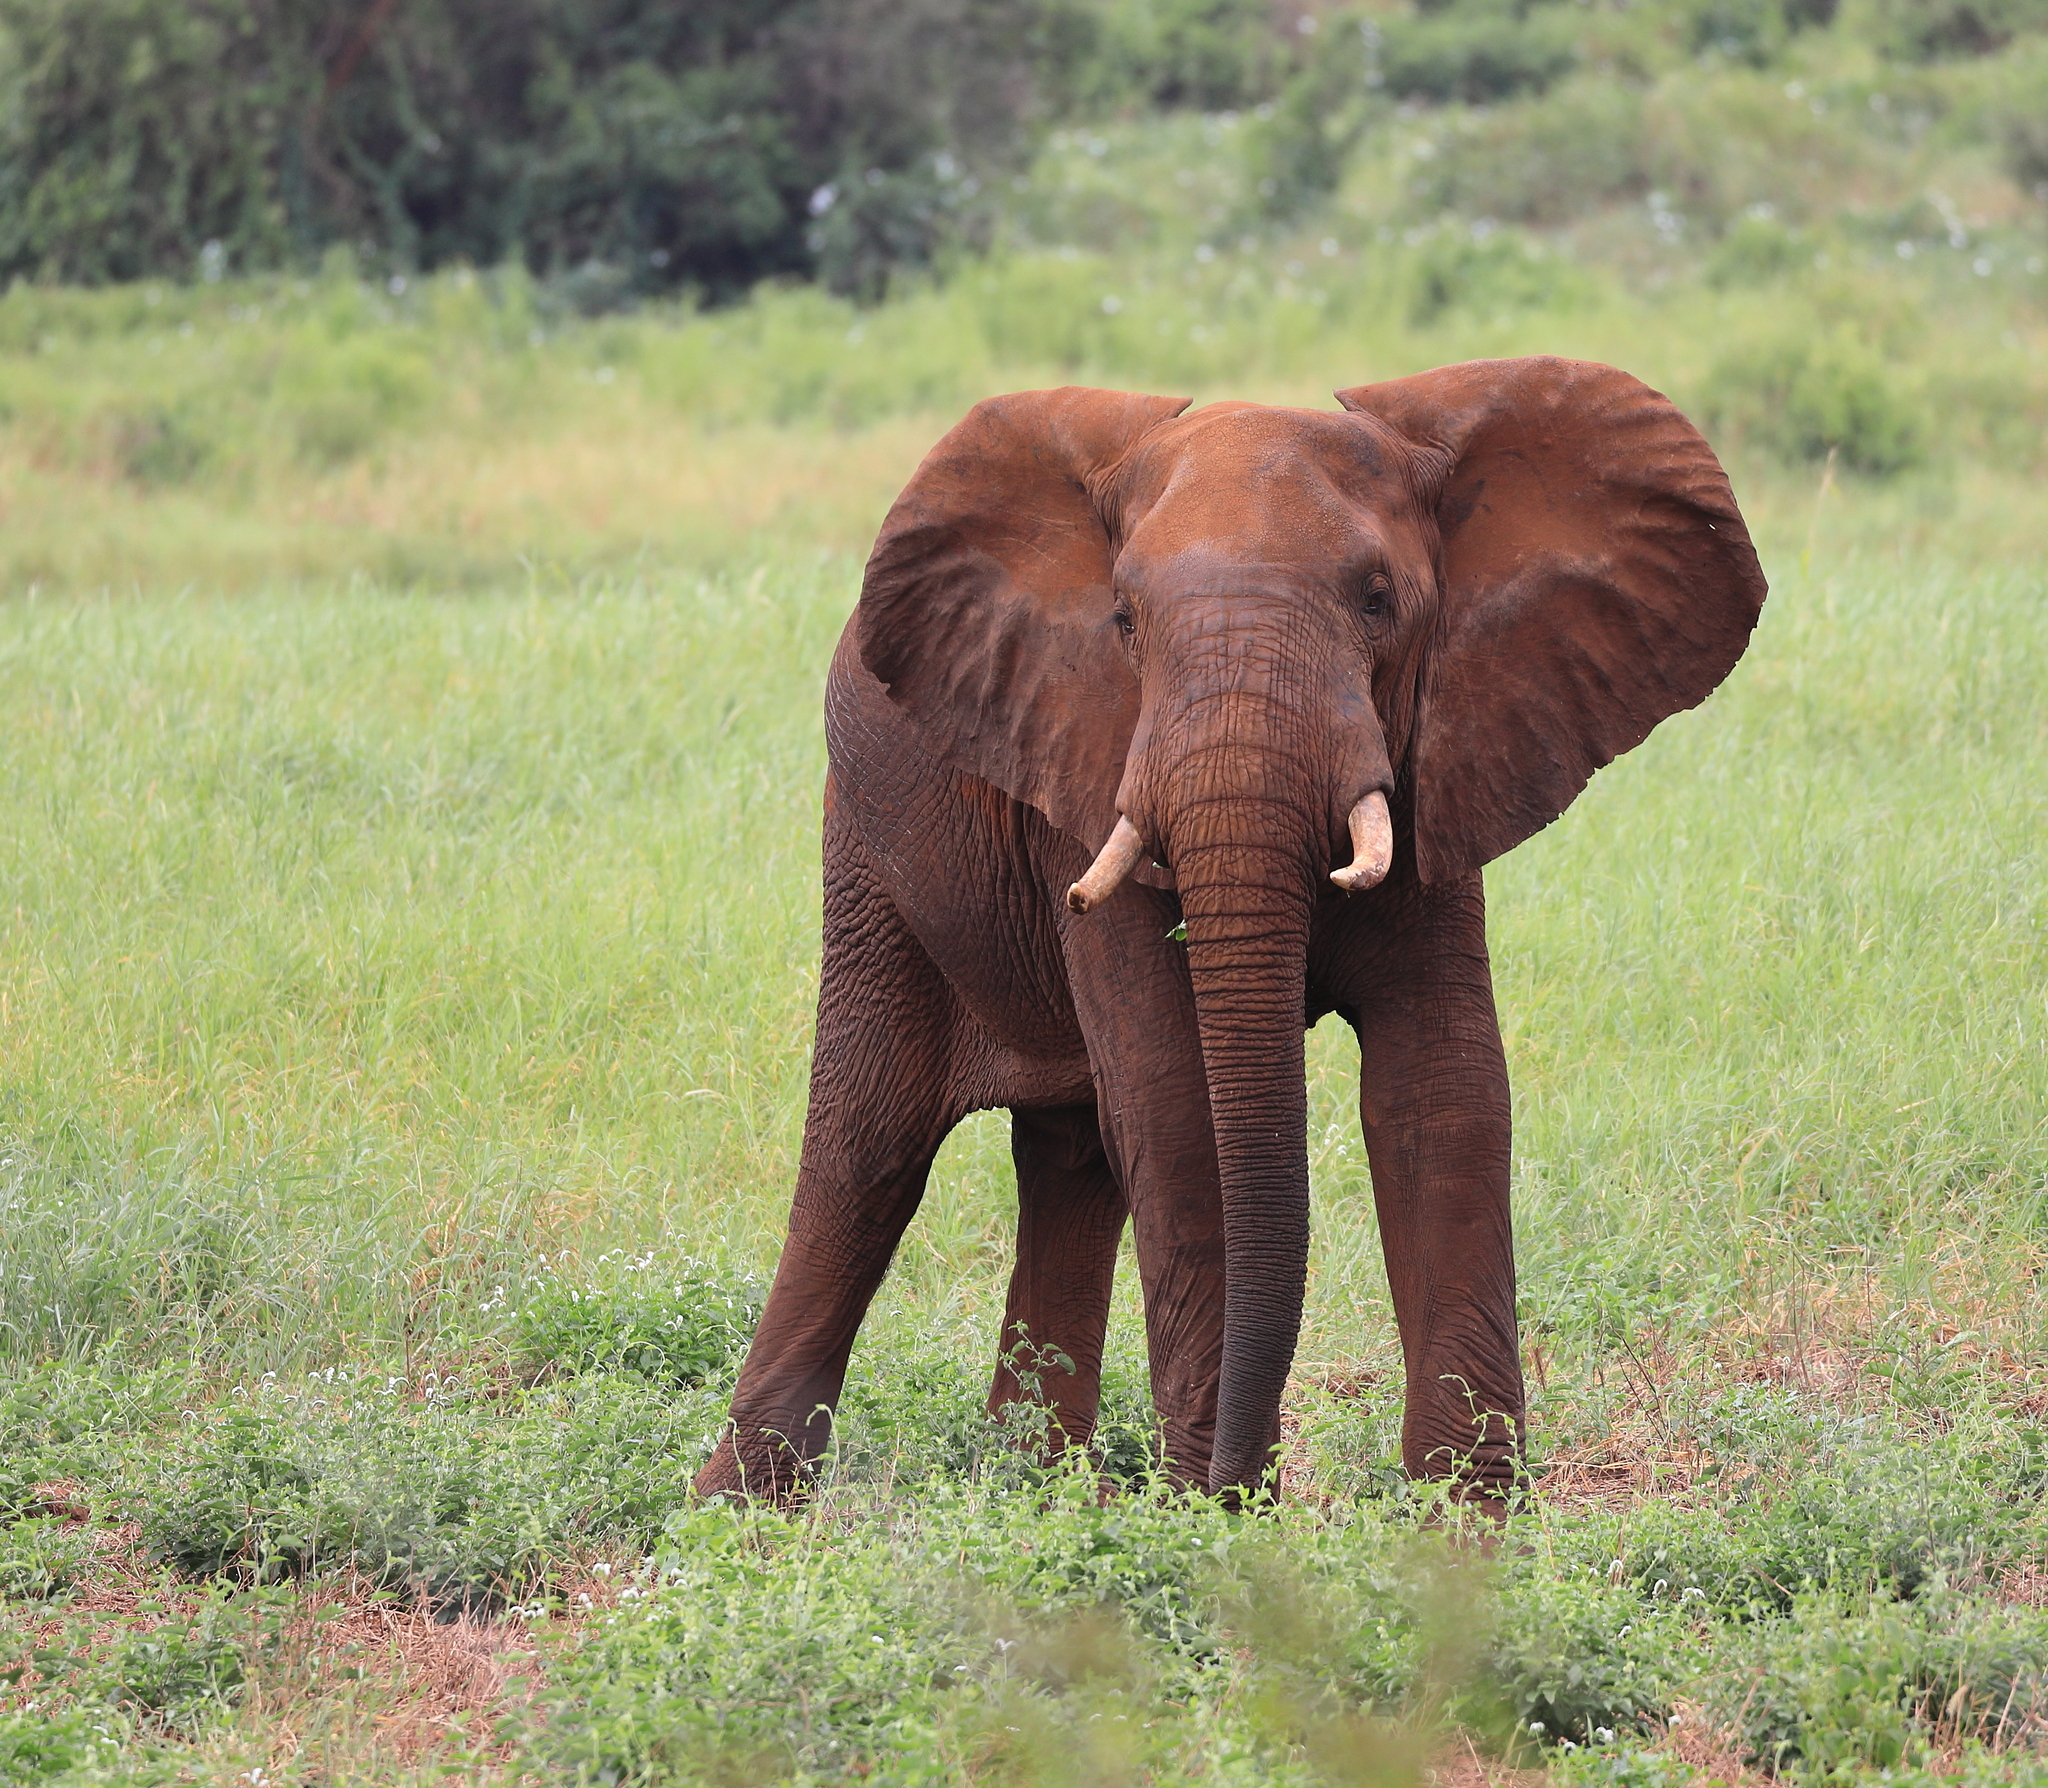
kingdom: Animalia
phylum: Chordata
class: Mammalia
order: Proboscidea
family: Elephantidae
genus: Loxodonta
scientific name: Loxodonta africana
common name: African elephant
